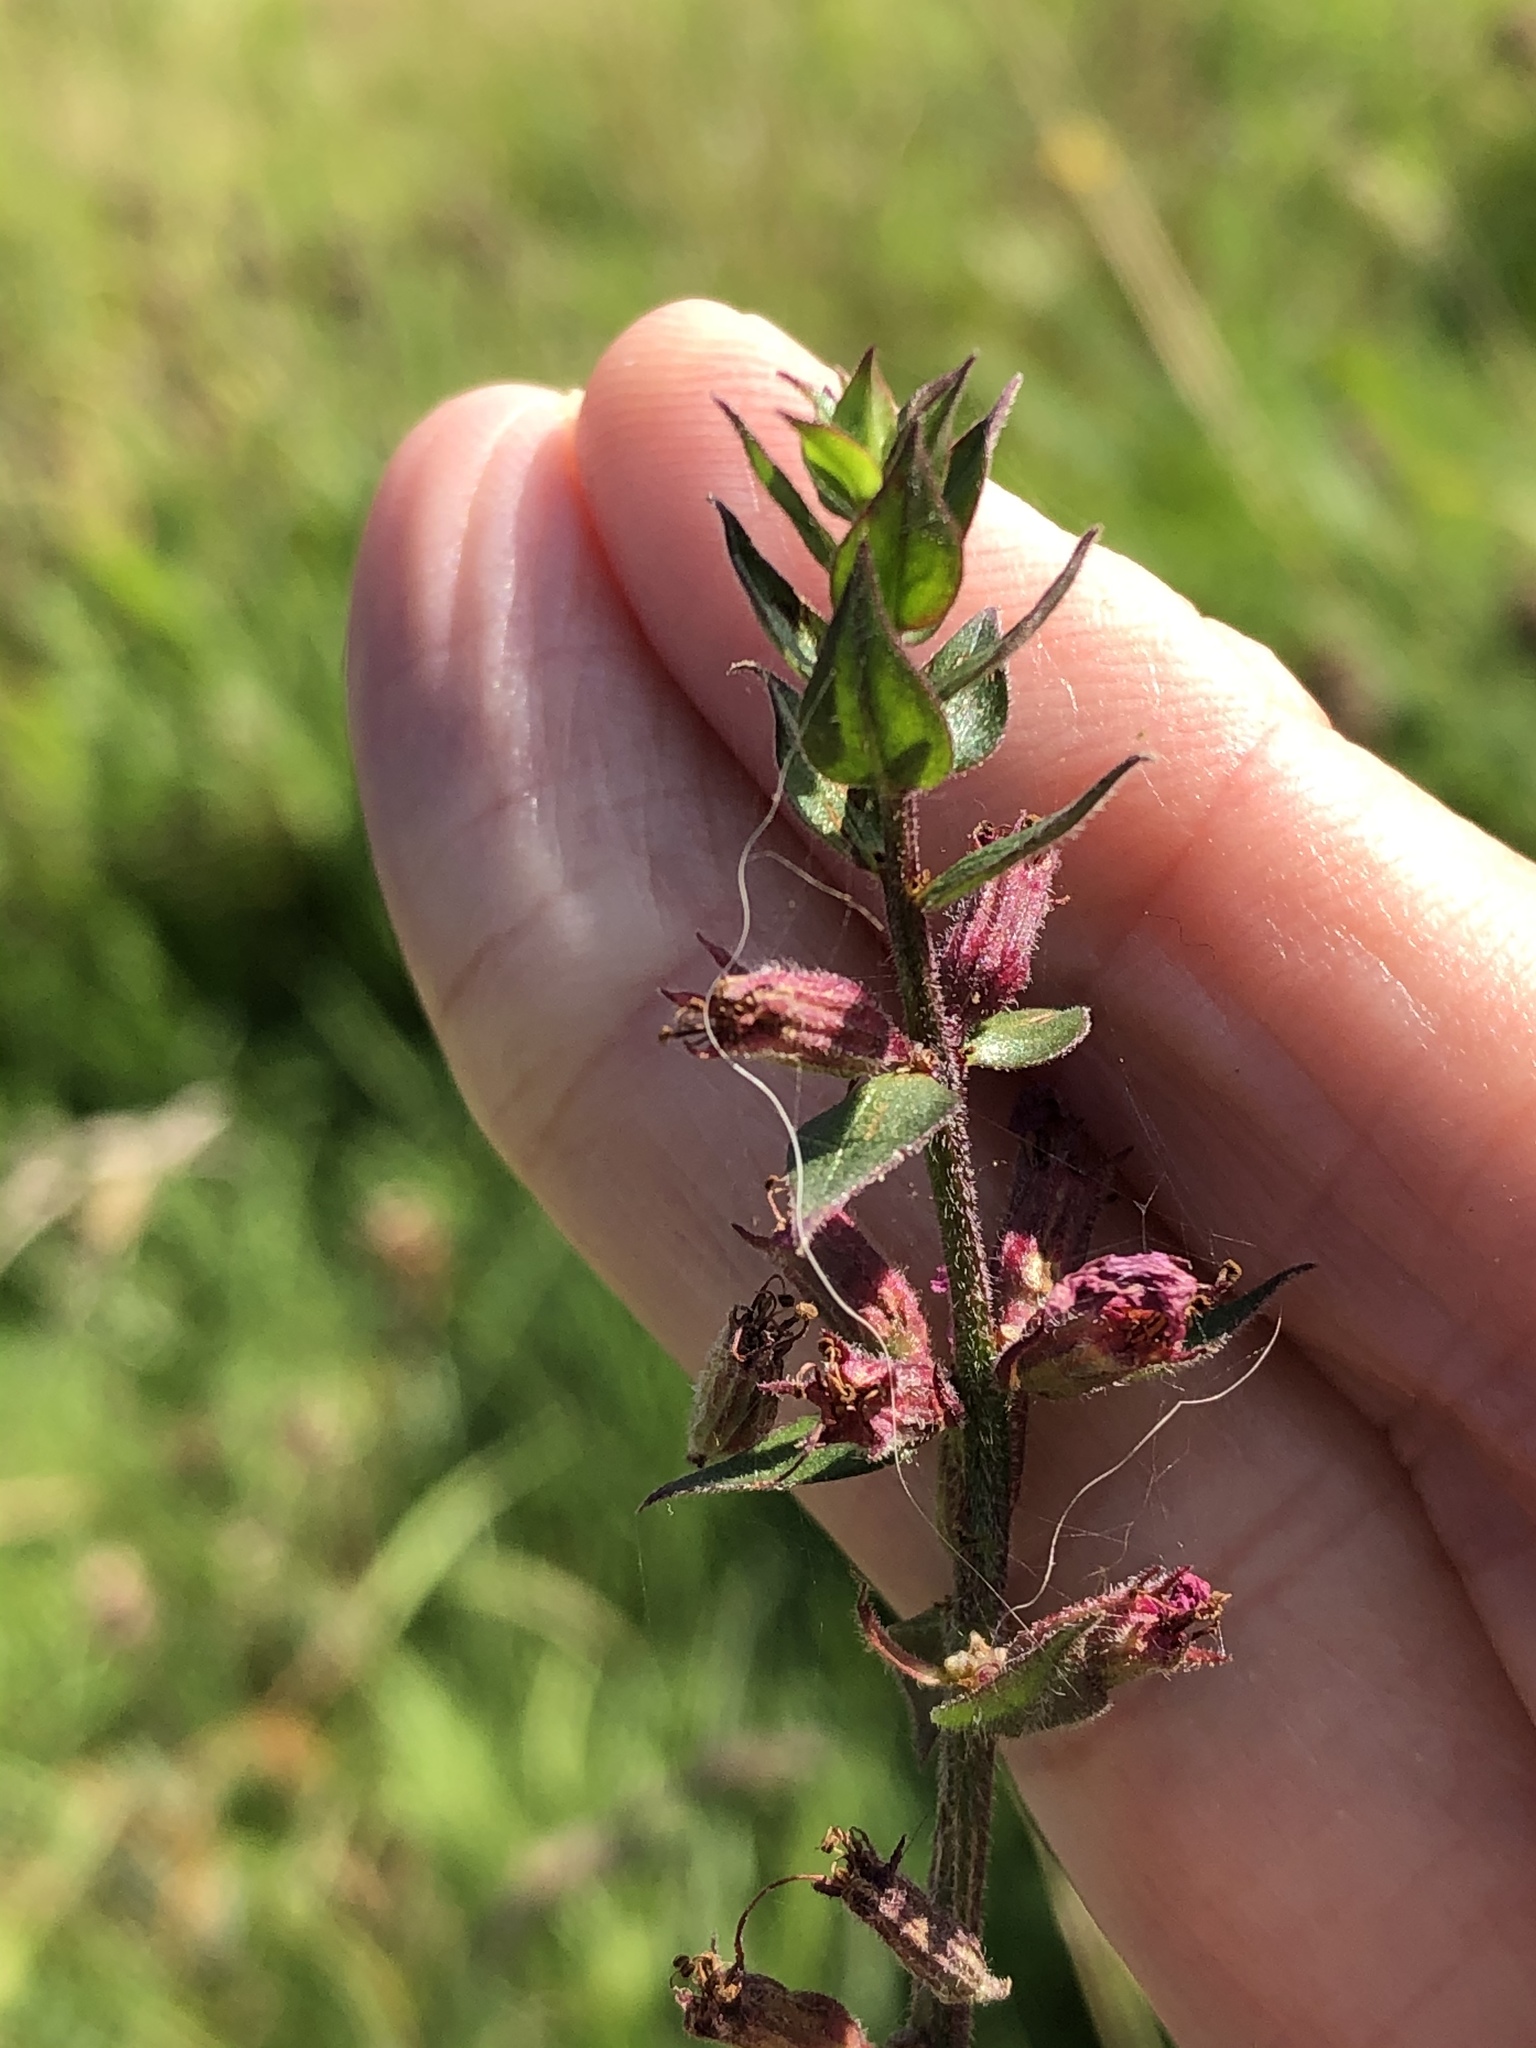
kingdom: Plantae
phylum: Tracheophyta
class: Magnoliopsida
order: Myrtales
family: Lythraceae
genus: Lythrum
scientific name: Lythrum salicaria
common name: Purple loosestrife
